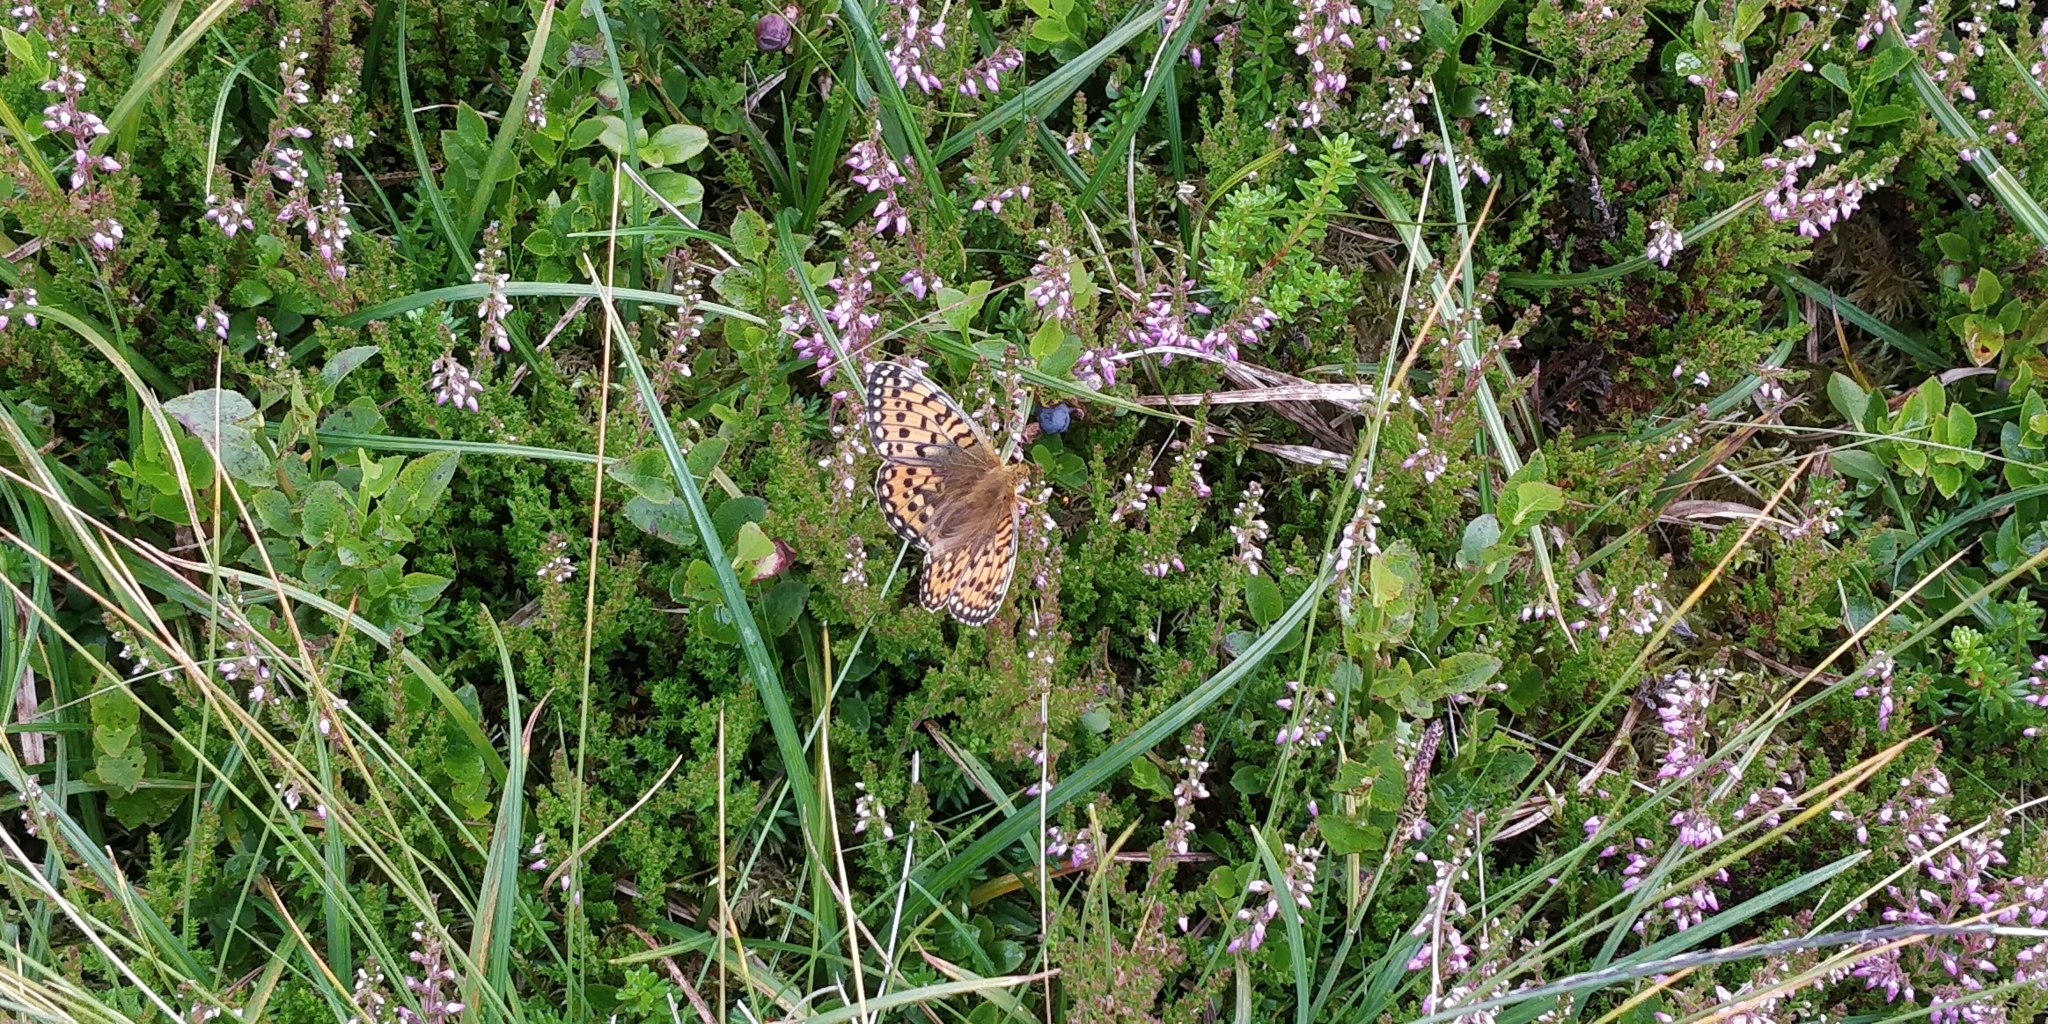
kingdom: Animalia
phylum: Arthropoda
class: Insecta
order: Lepidoptera
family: Nymphalidae
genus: Speyeria
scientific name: Speyeria aglaja
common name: Dark green fritillary
